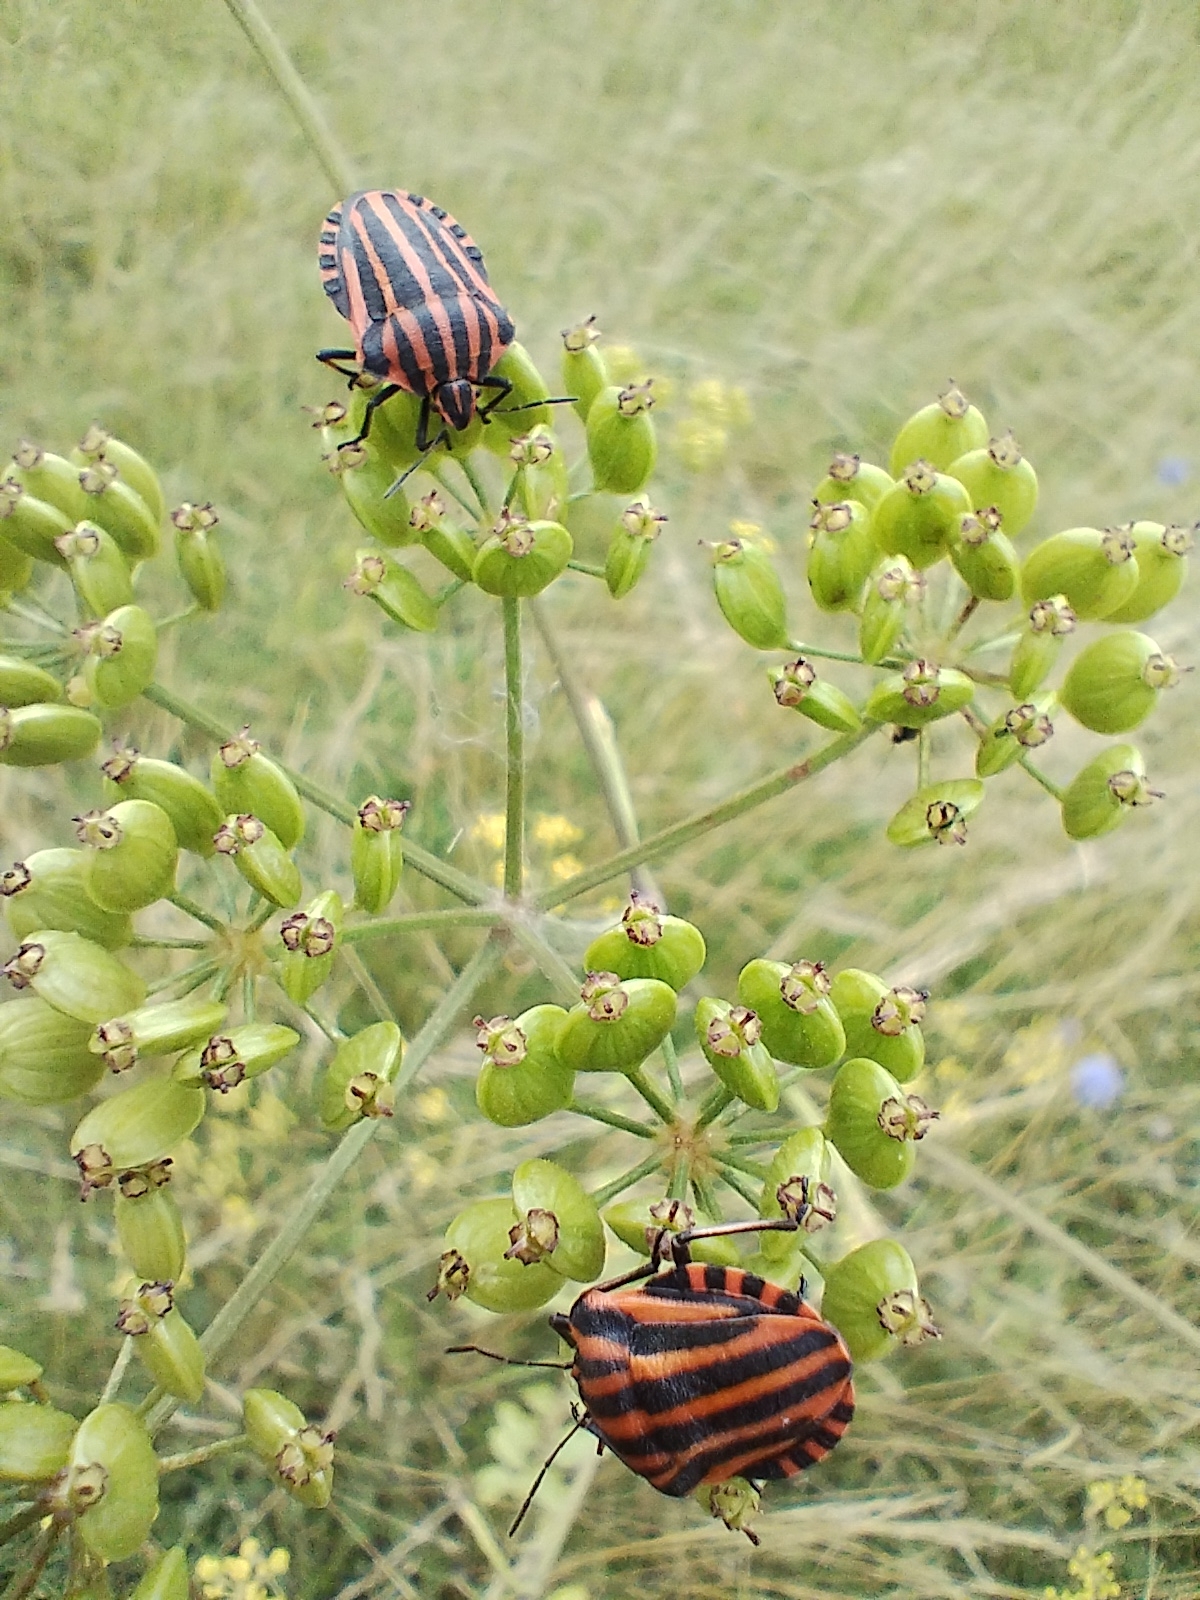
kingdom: Animalia
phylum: Arthropoda
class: Insecta
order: Hemiptera
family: Pentatomidae
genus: Graphosoma
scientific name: Graphosoma italicum
